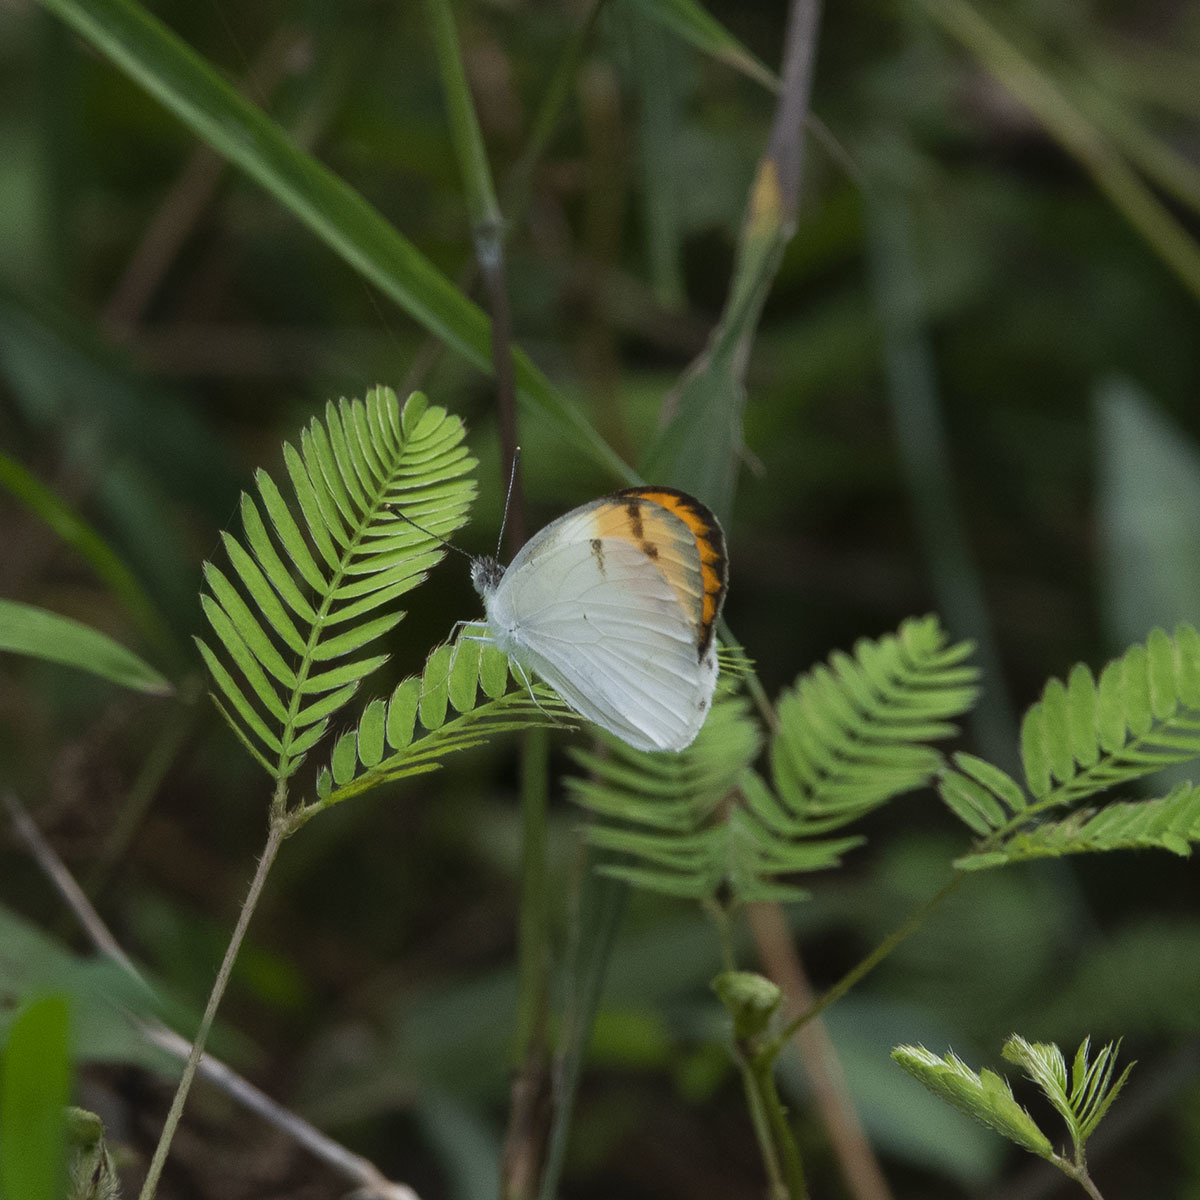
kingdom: Animalia
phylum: Arthropoda
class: Insecta
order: Lepidoptera
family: Pieridae
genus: Colotis
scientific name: Colotis aurora
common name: Plain orange-tip
